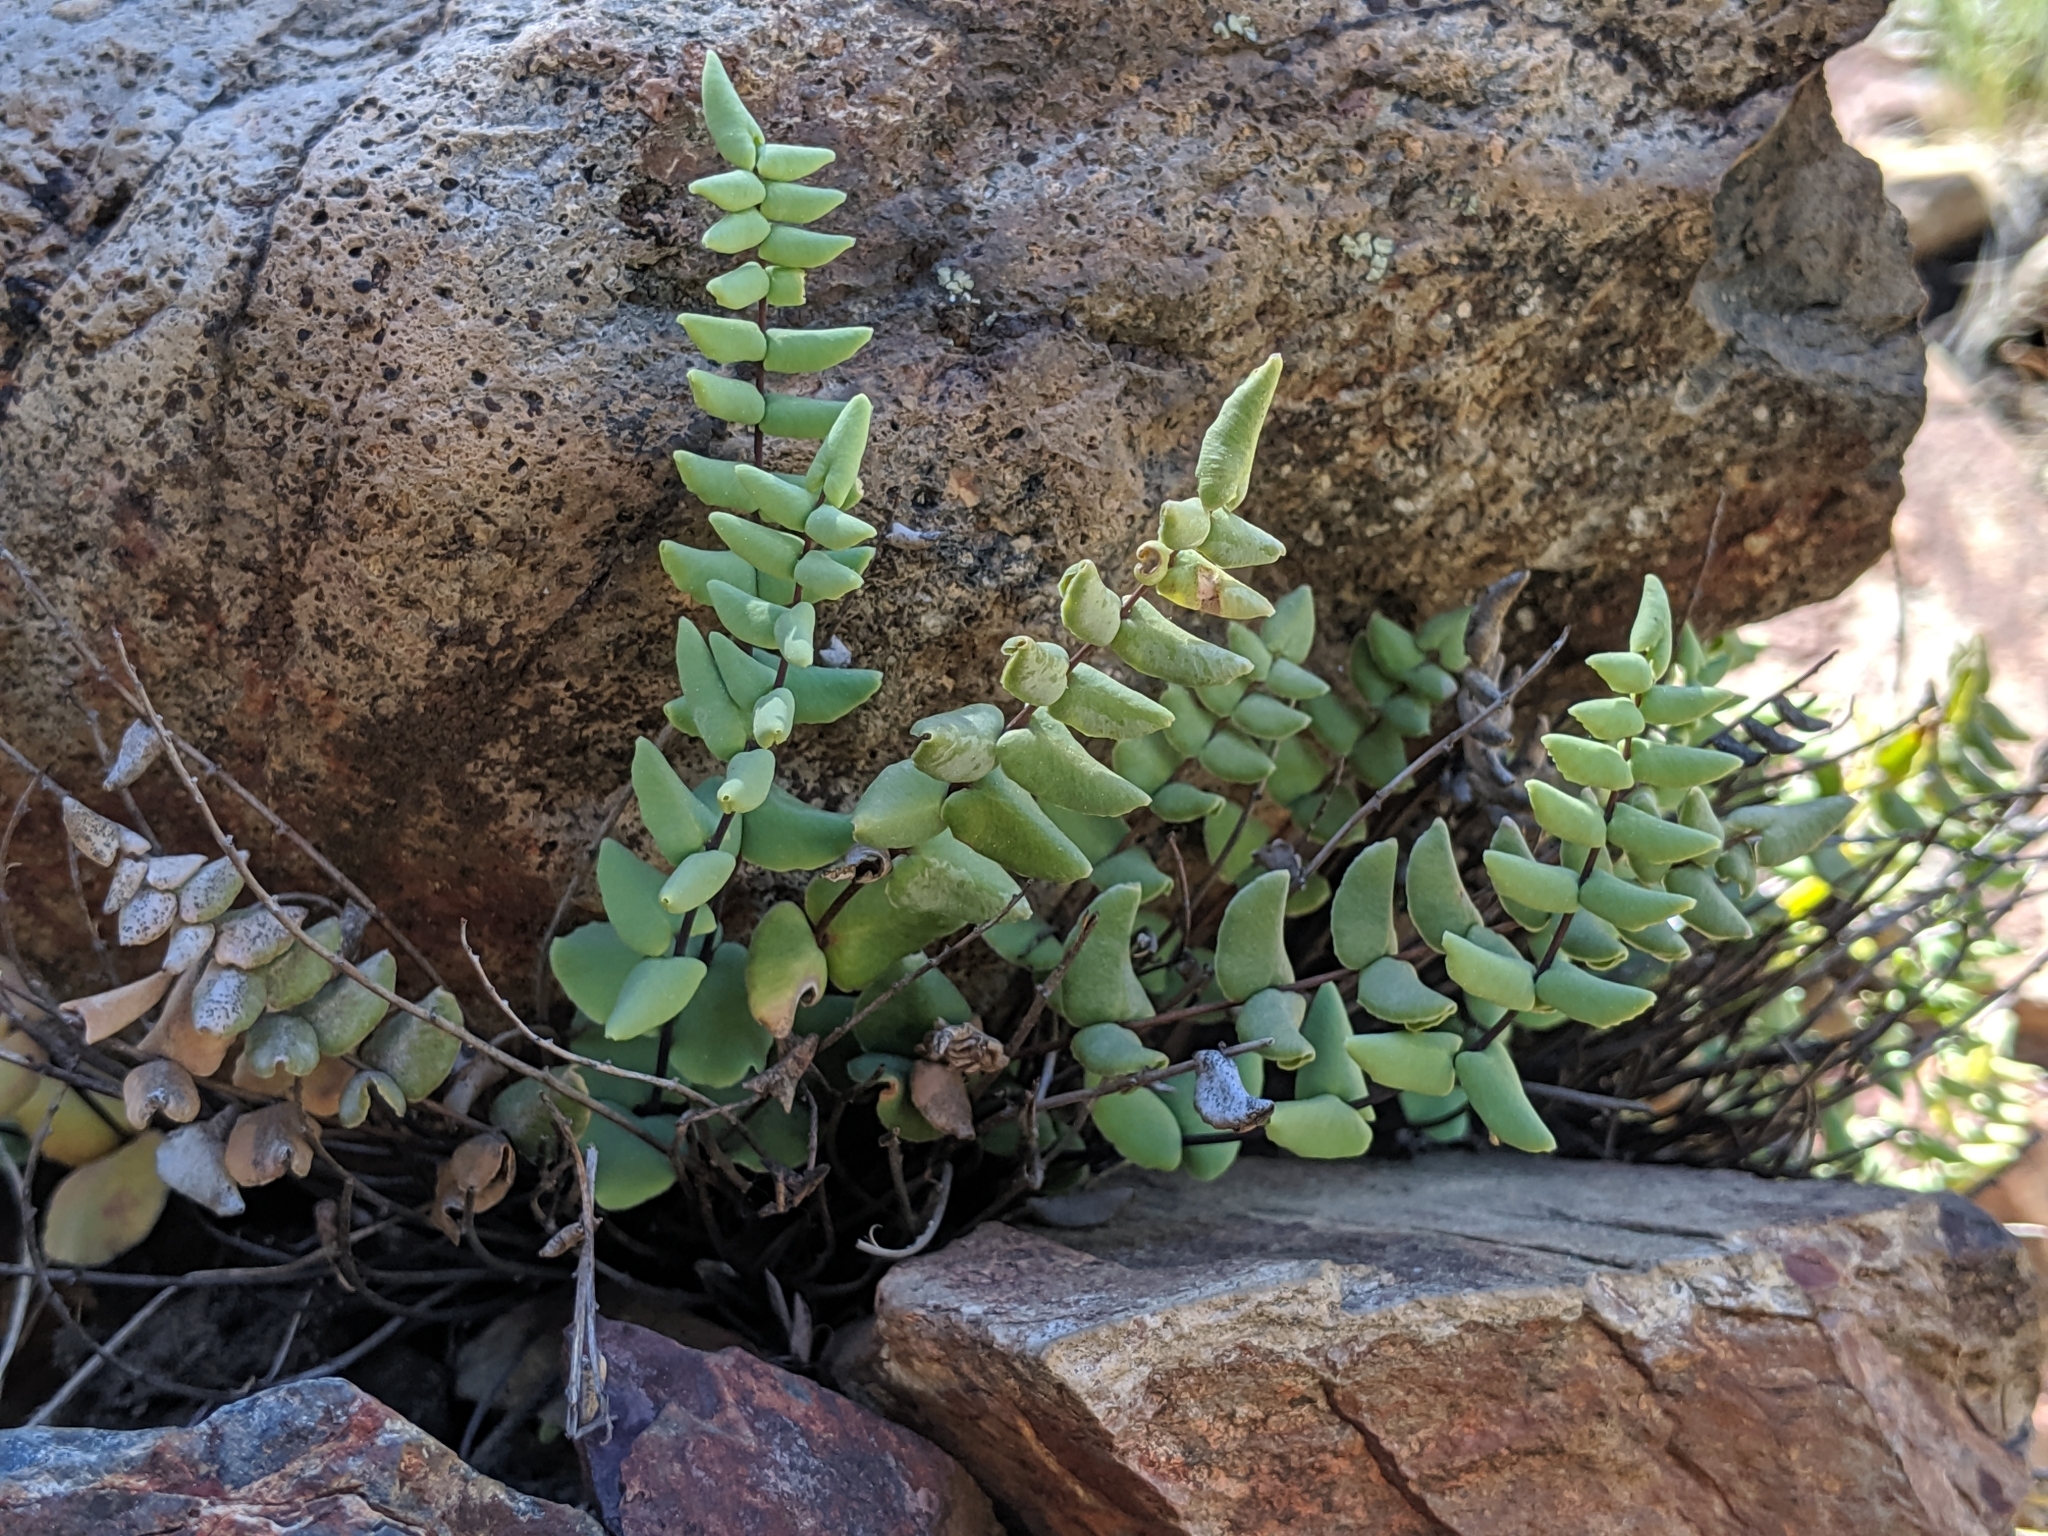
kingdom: Plantae
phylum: Tracheophyta
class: Polypodiopsida
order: Polypodiales
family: Pteridaceae
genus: Pellaea
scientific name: Pellaea bridgesii
